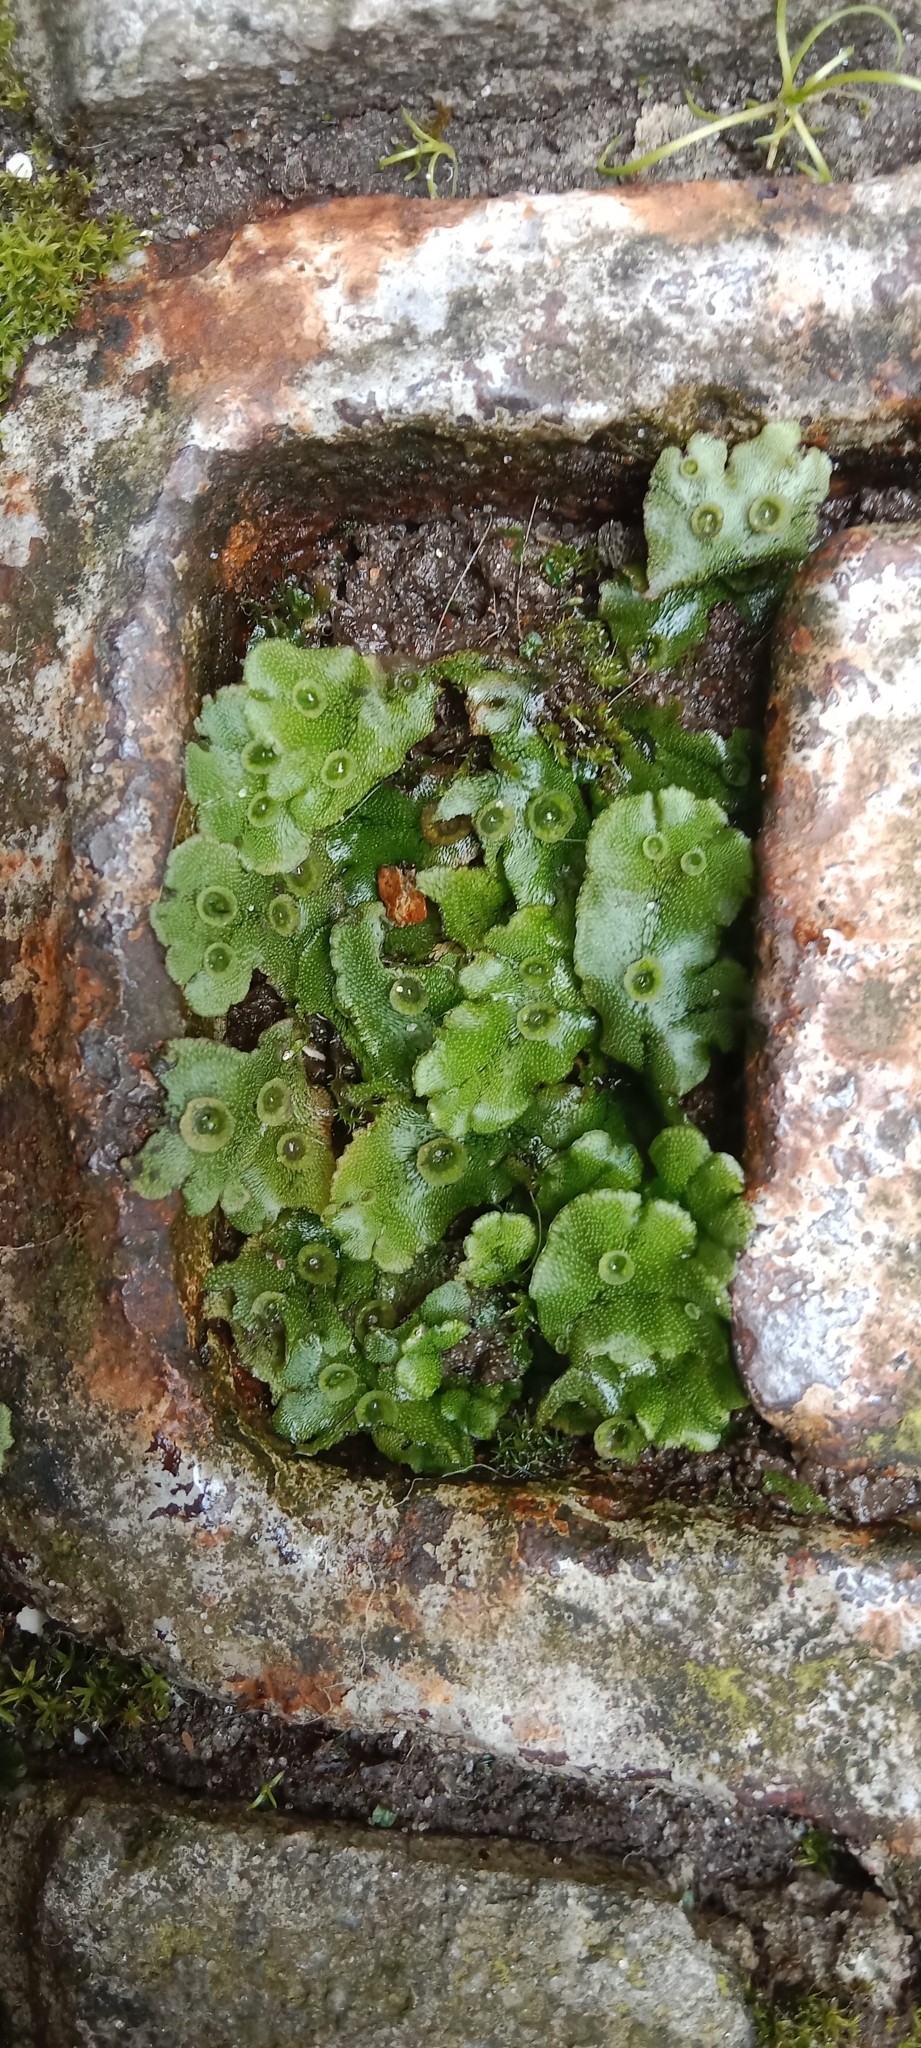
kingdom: Plantae
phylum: Marchantiophyta
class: Marchantiopsida
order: Marchantiales
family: Marchantiaceae
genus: Marchantia
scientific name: Marchantia polymorpha
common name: Common liverwort
